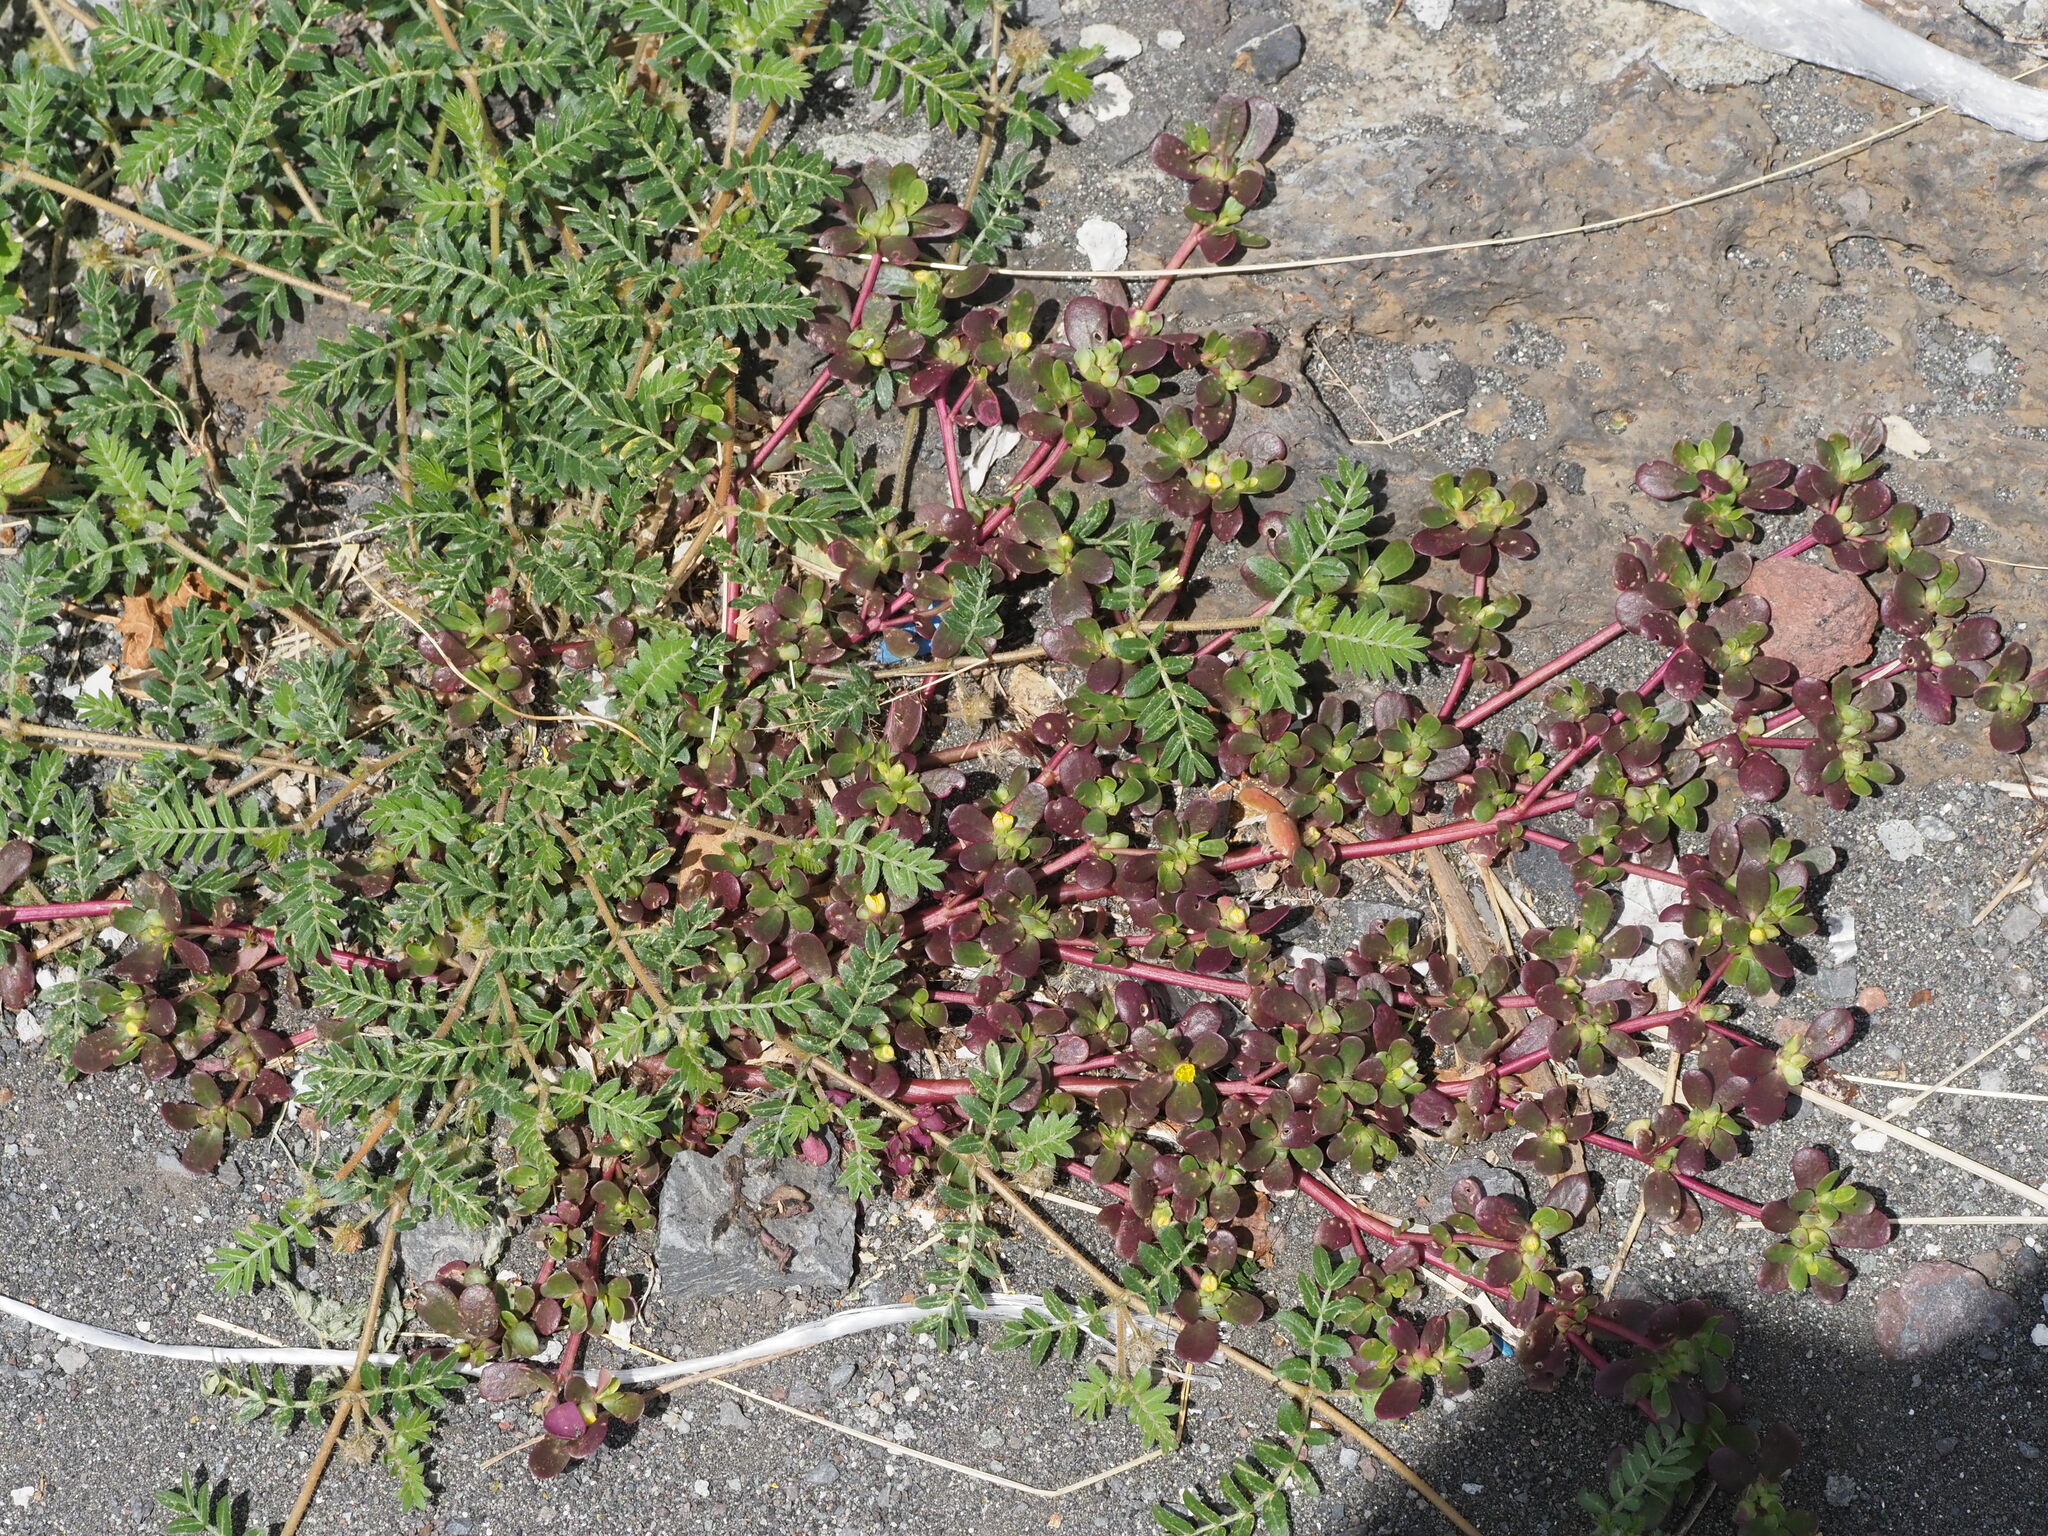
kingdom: Plantae
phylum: Tracheophyta
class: Magnoliopsida
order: Caryophyllales
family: Portulacaceae
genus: Portulaca
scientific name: Portulaca oleracea
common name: Common purslane
